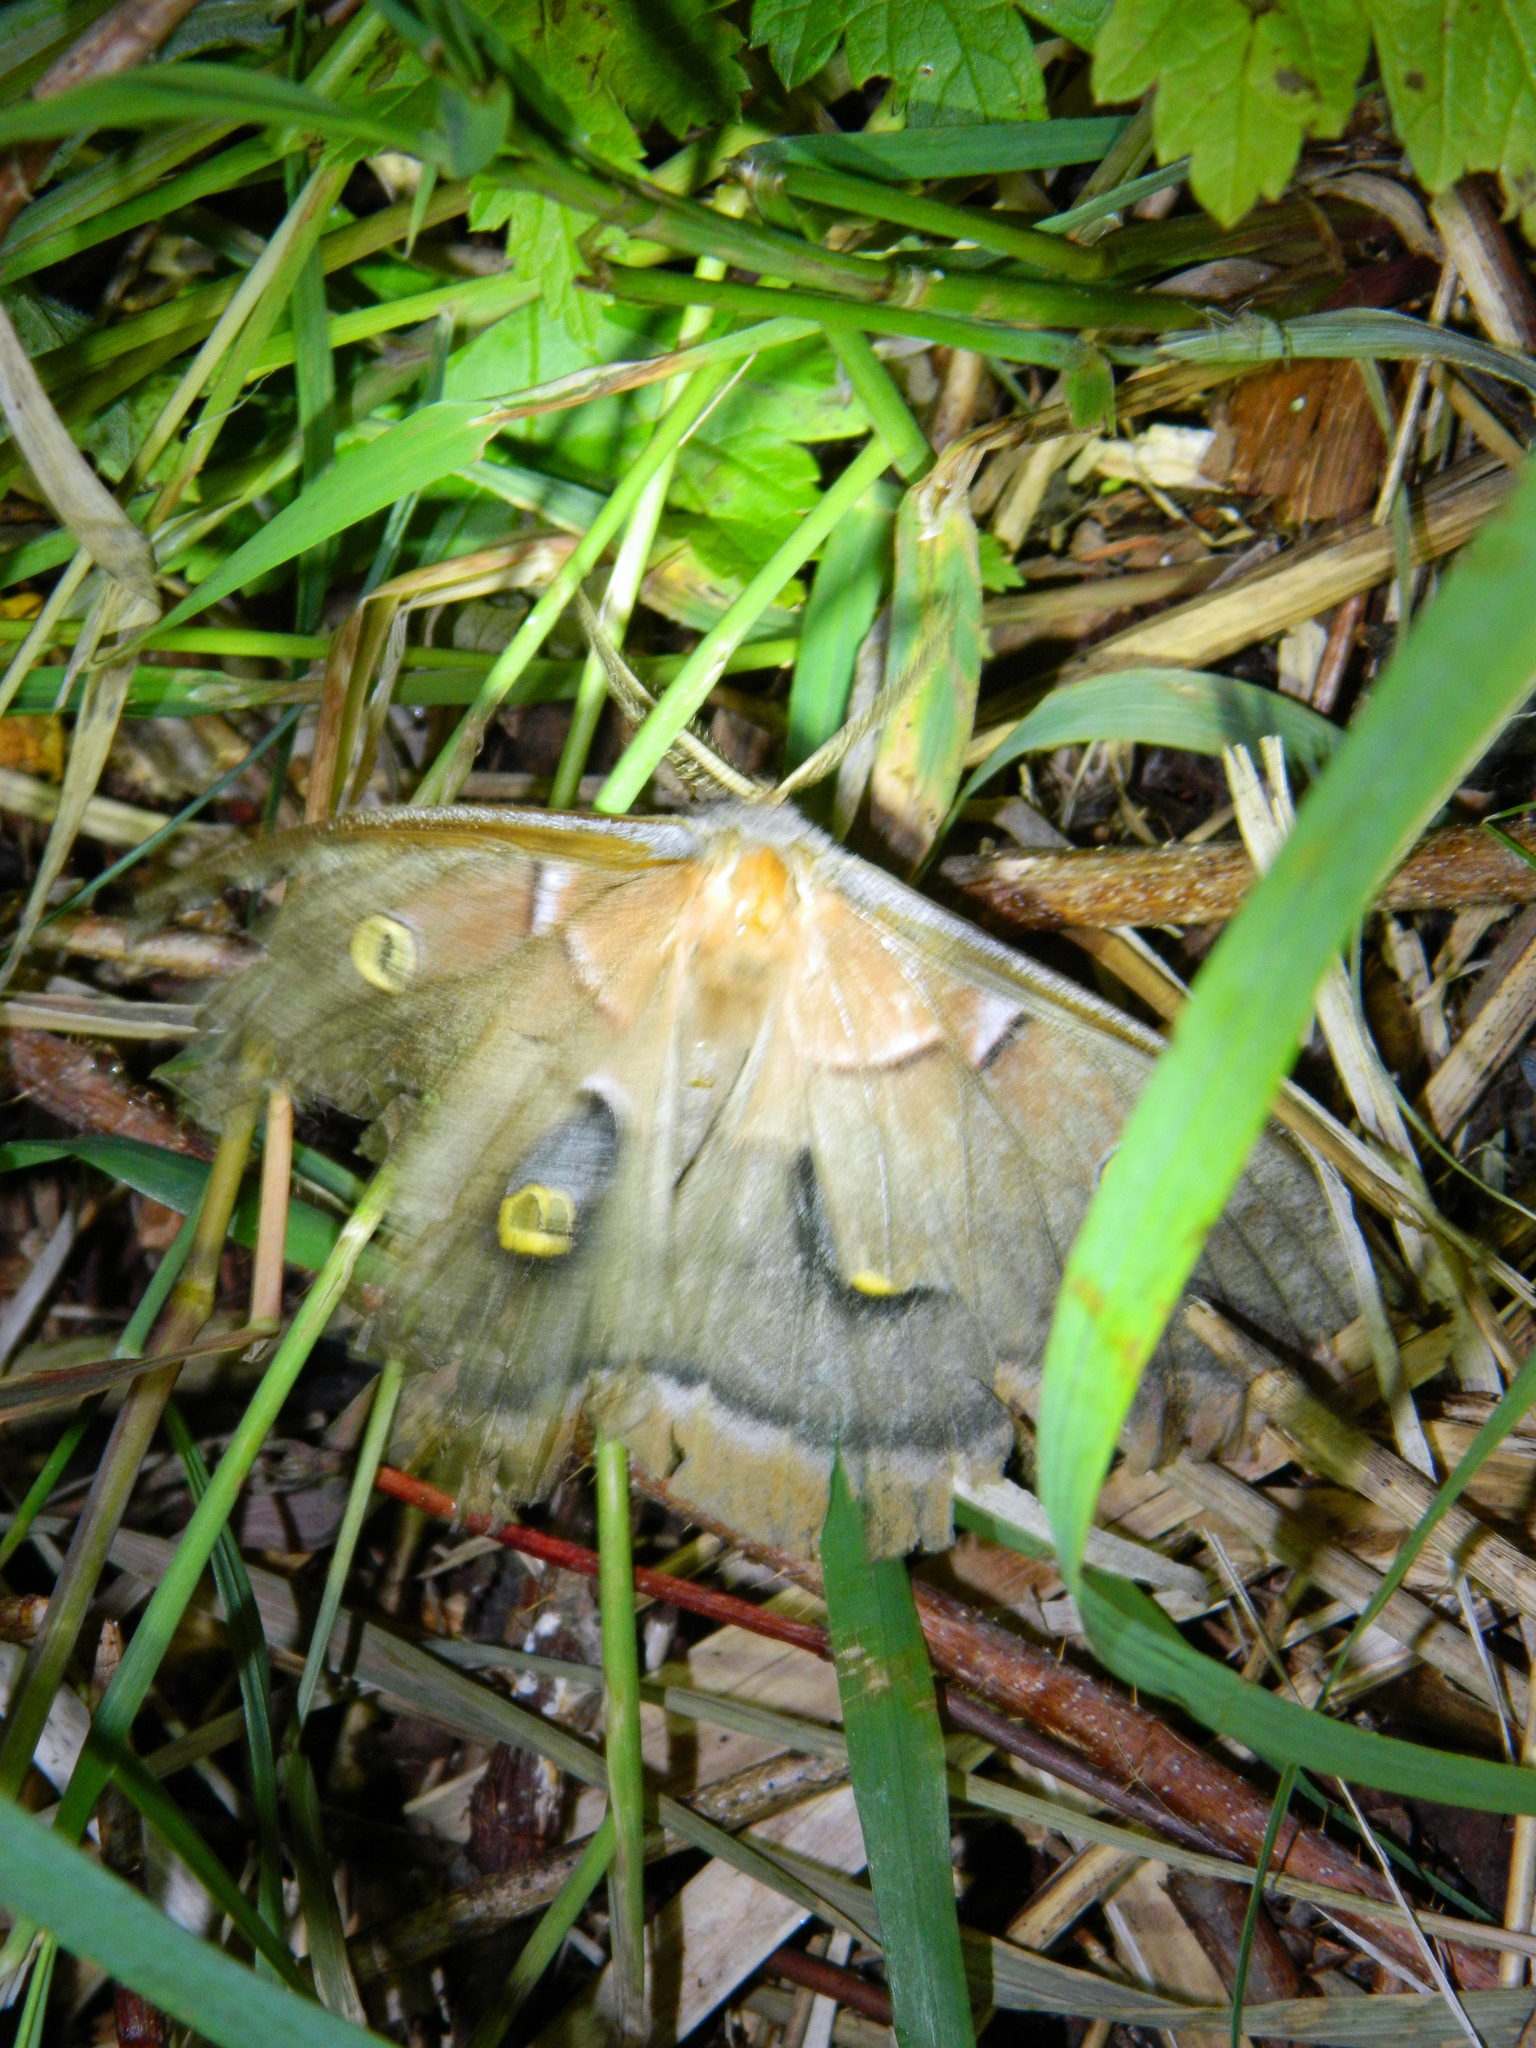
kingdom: Animalia
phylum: Arthropoda
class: Insecta
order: Lepidoptera
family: Saturniidae
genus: Antheraea
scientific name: Antheraea polyphemus
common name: Polyphemus moth
